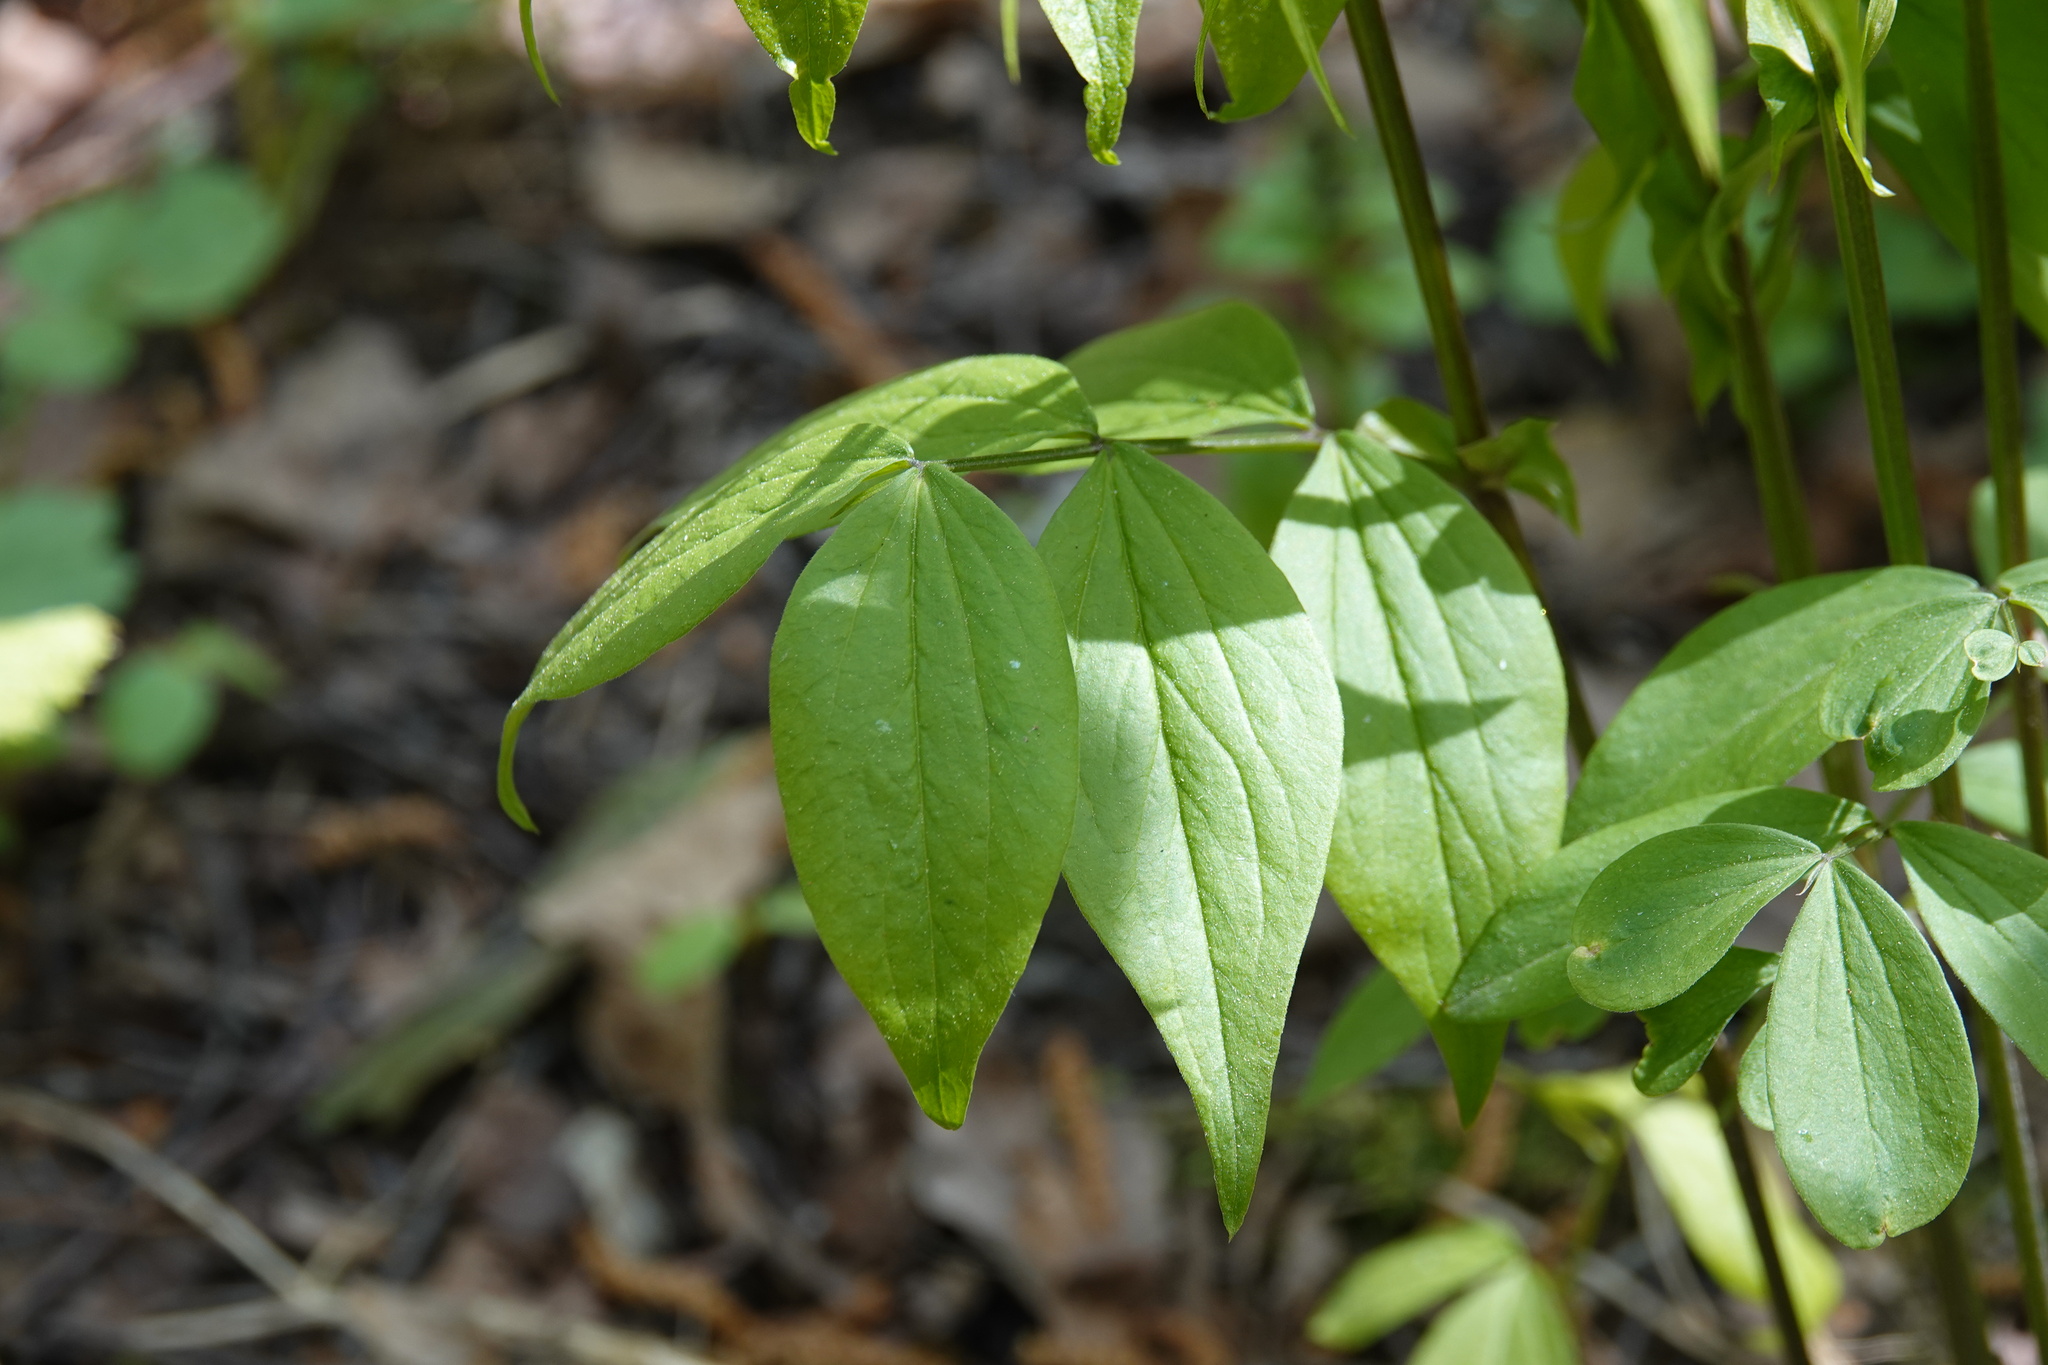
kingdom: Plantae
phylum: Tracheophyta
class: Magnoliopsida
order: Fabales
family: Fabaceae
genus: Lathyrus
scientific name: Lathyrus vernus
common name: Spring pea
